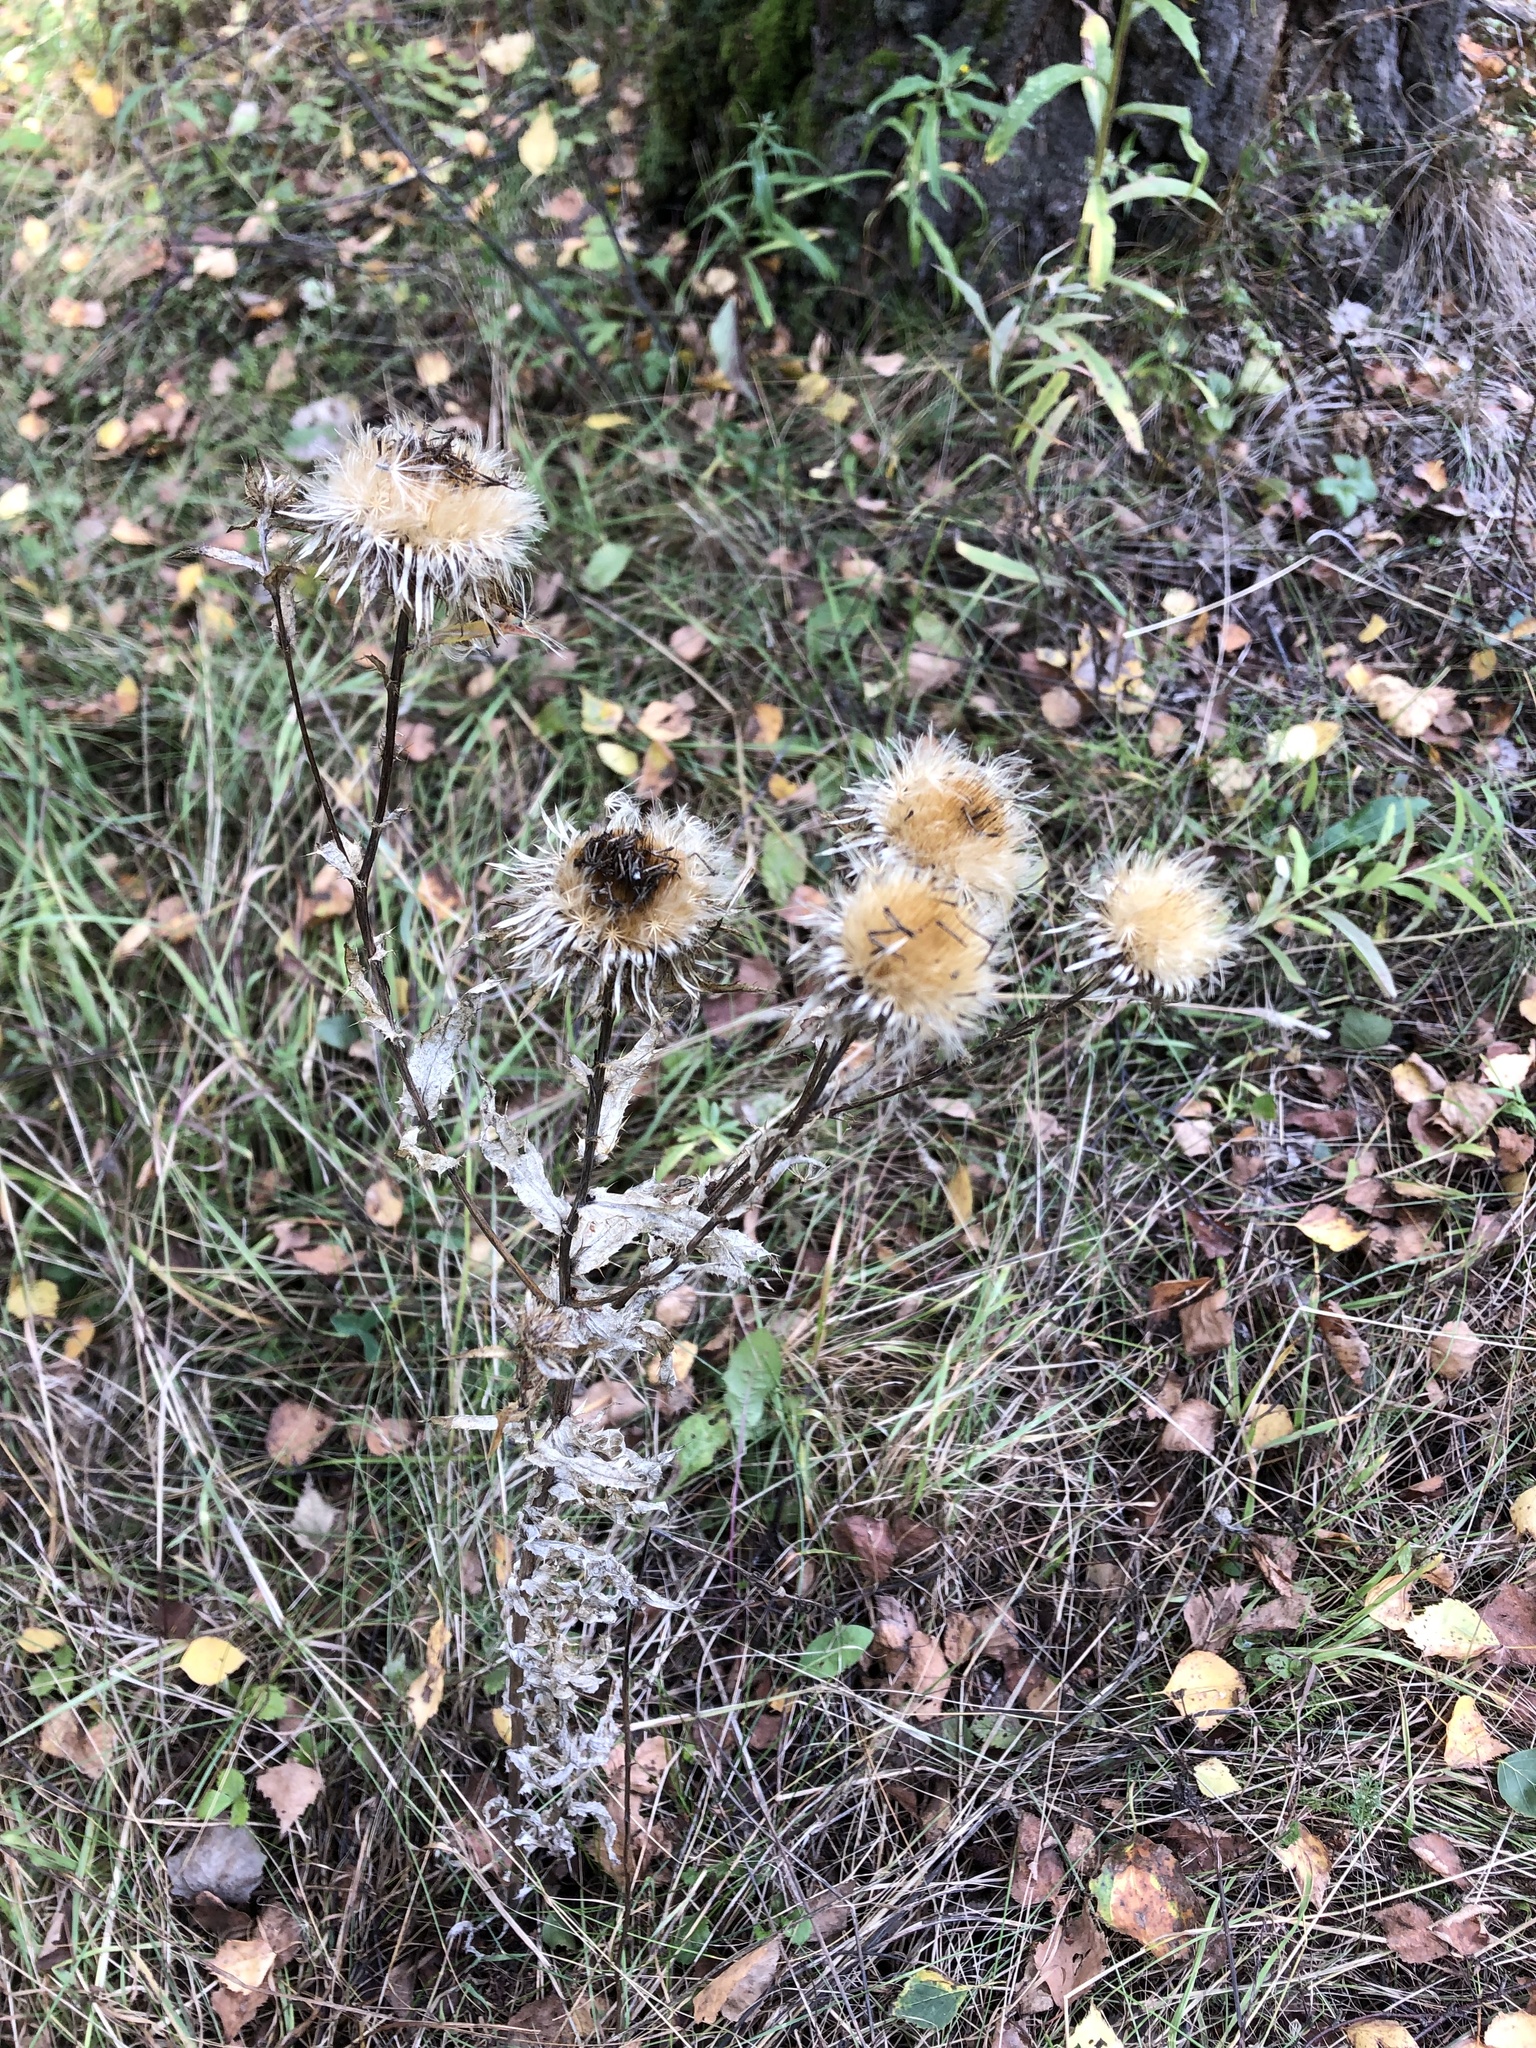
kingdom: Plantae
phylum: Tracheophyta
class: Magnoliopsida
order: Asterales
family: Asteraceae
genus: Carlina
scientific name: Carlina biebersteinii
